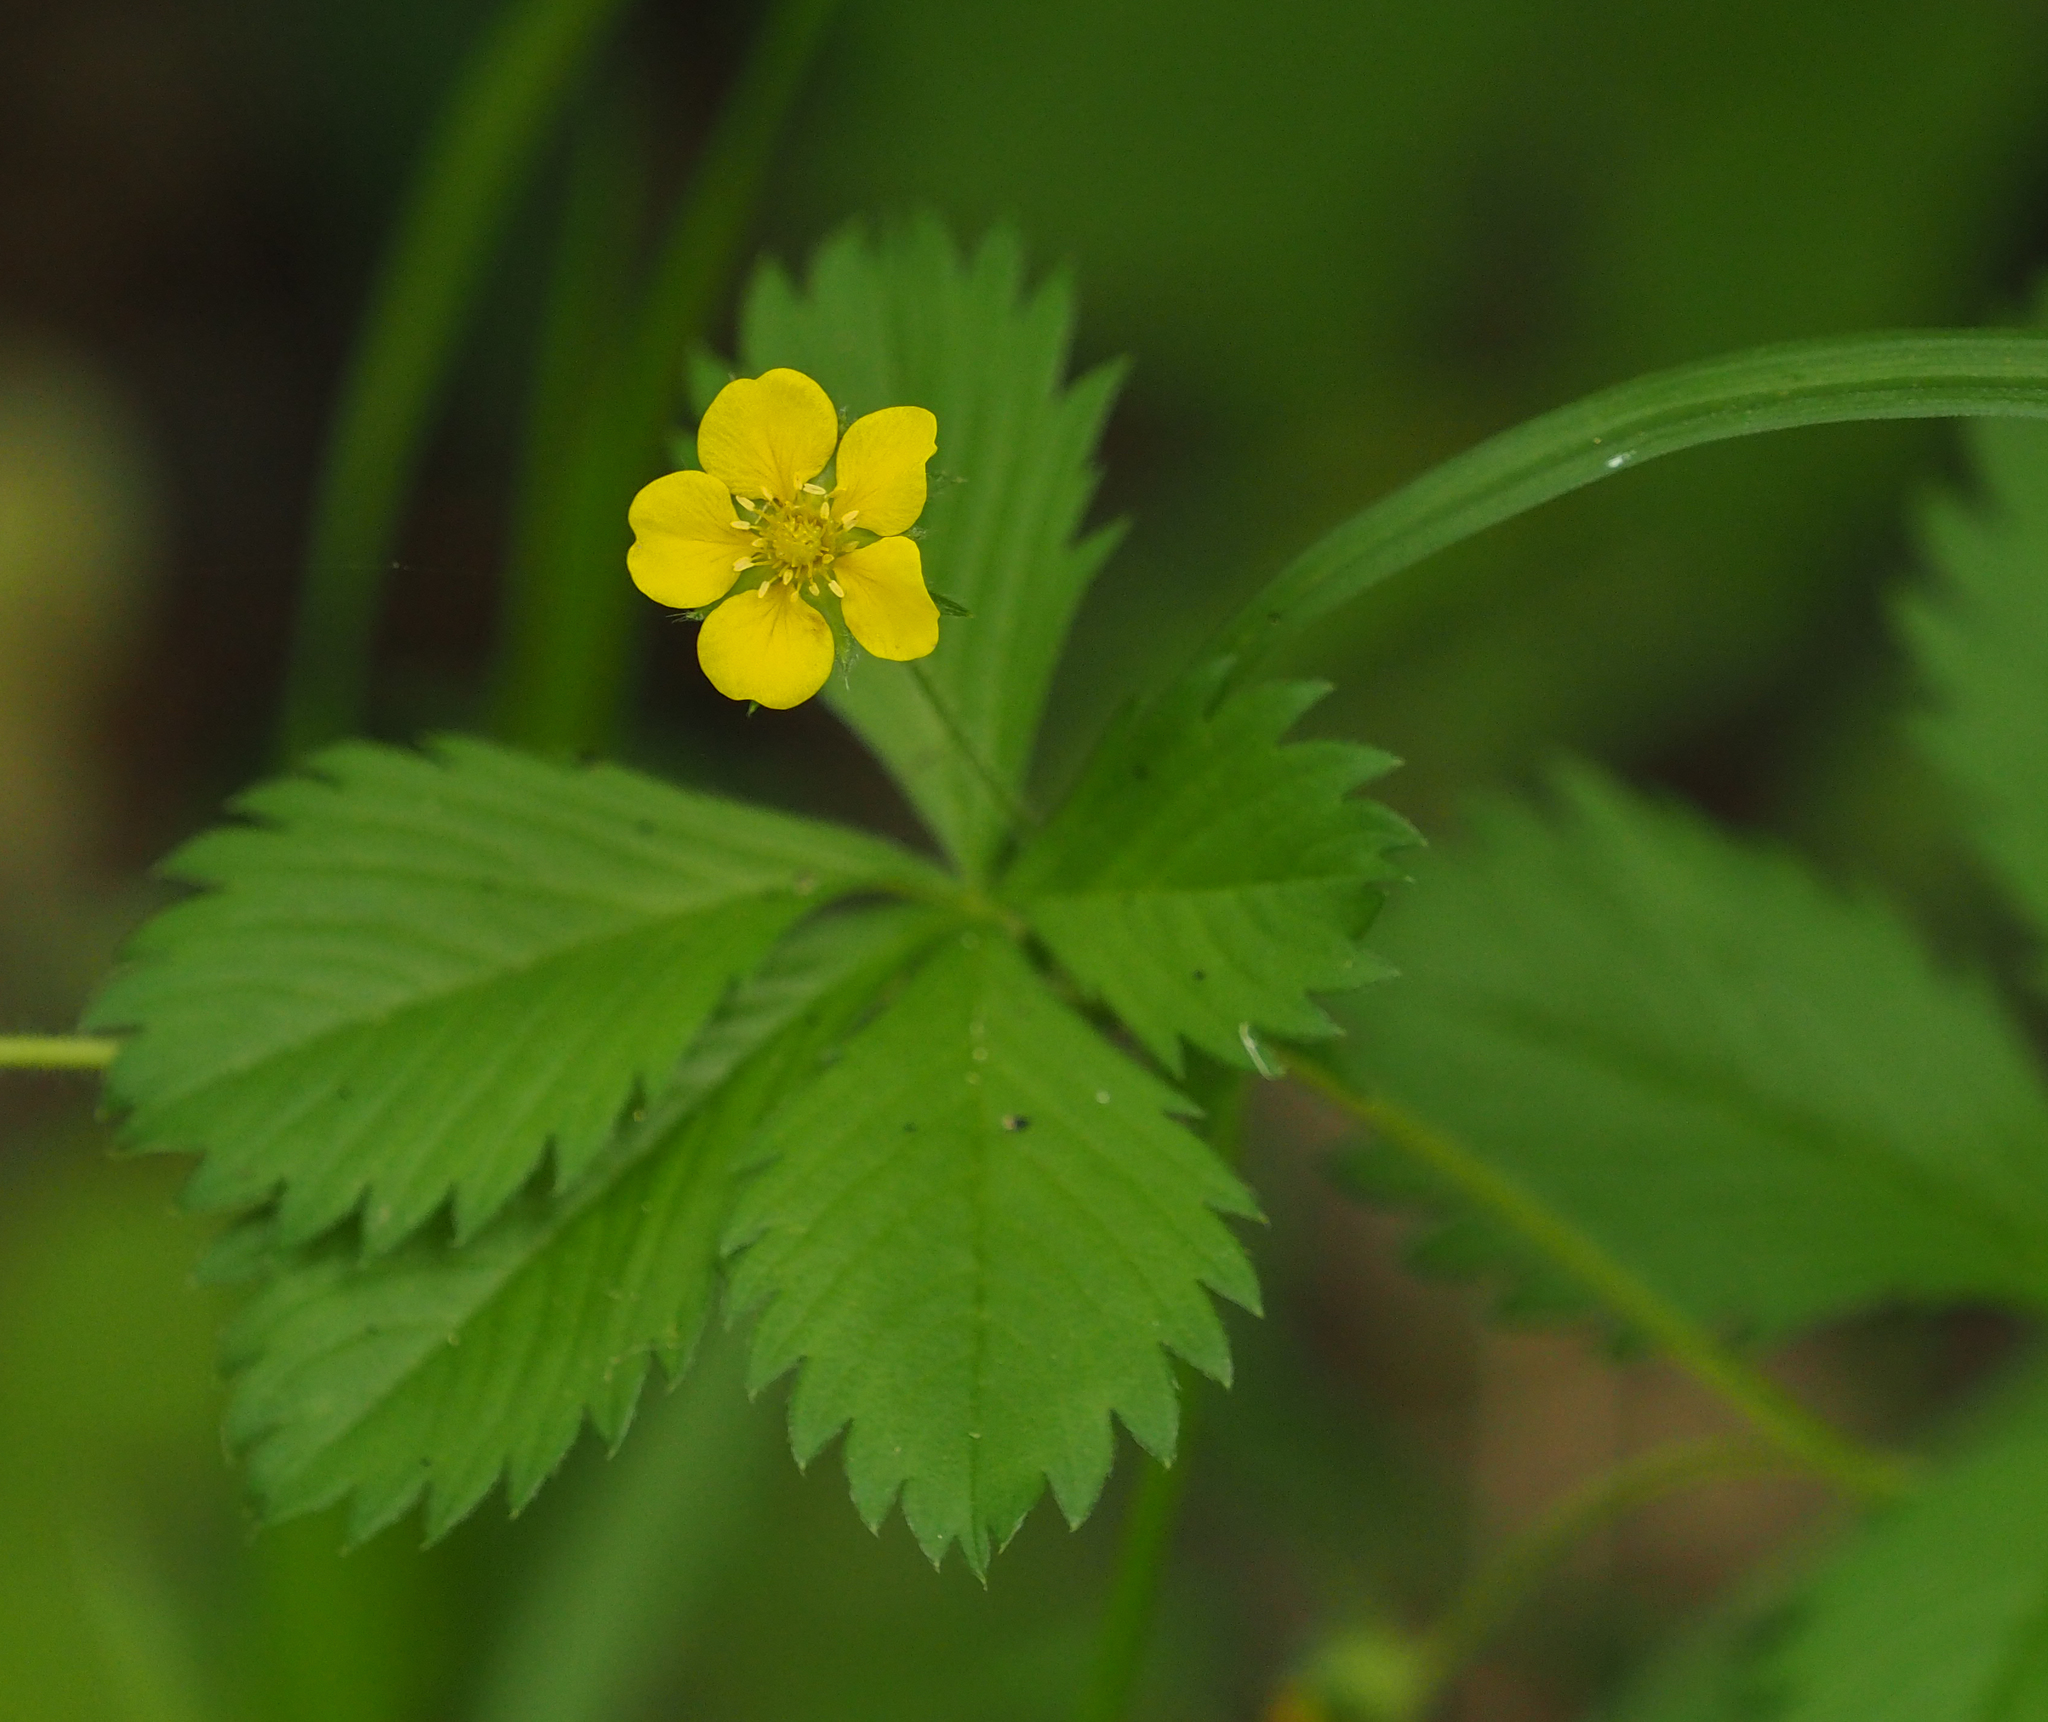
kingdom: Plantae
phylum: Tracheophyta
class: Magnoliopsida
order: Rosales
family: Rosaceae
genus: Potentilla
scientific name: Potentilla simplex
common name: Old field cinquefoil
